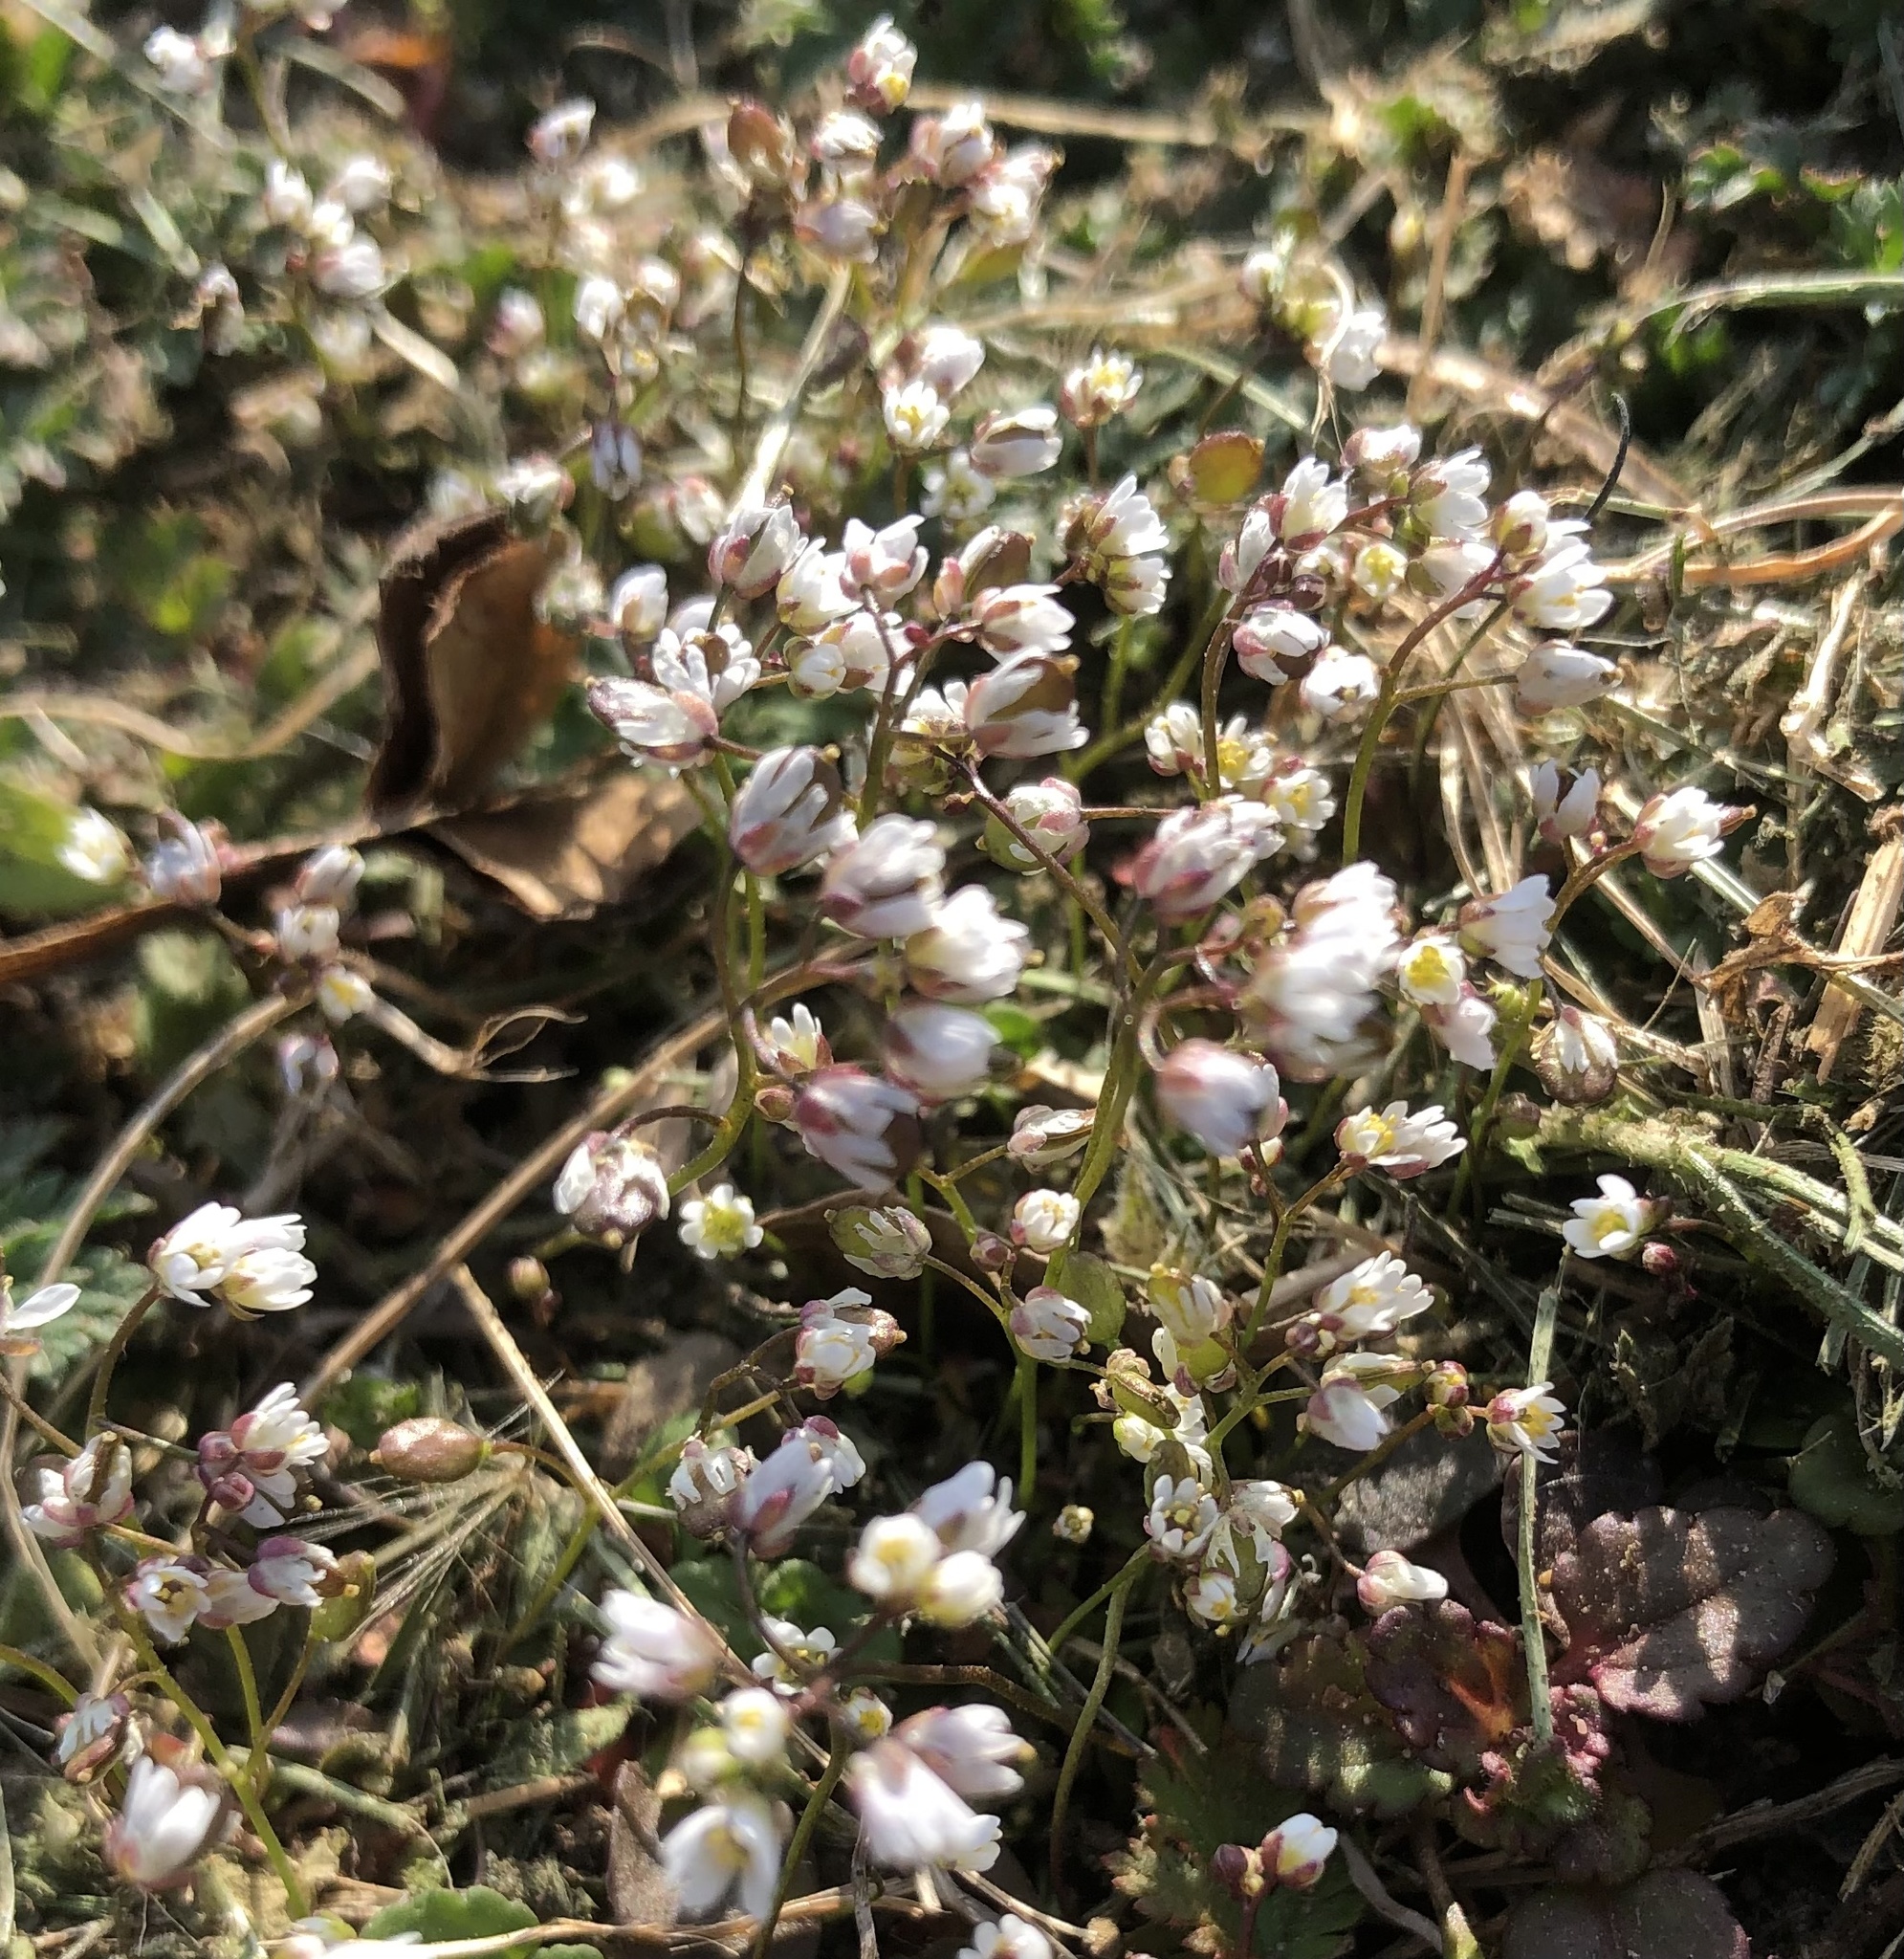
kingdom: Plantae
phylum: Tracheophyta
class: Magnoliopsida
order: Brassicales
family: Brassicaceae
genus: Draba
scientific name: Draba verna
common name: Spring draba
